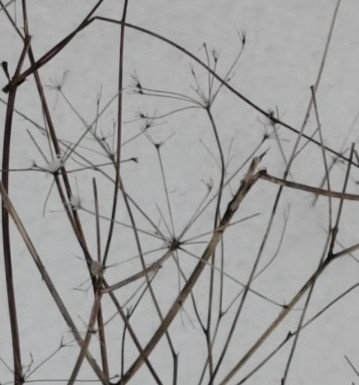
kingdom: Plantae
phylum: Tracheophyta
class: Magnoliopsida
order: Apiales
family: Apiaceae
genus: Anthriscus
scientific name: Anthriscus sylvestris
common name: Cow parsley
